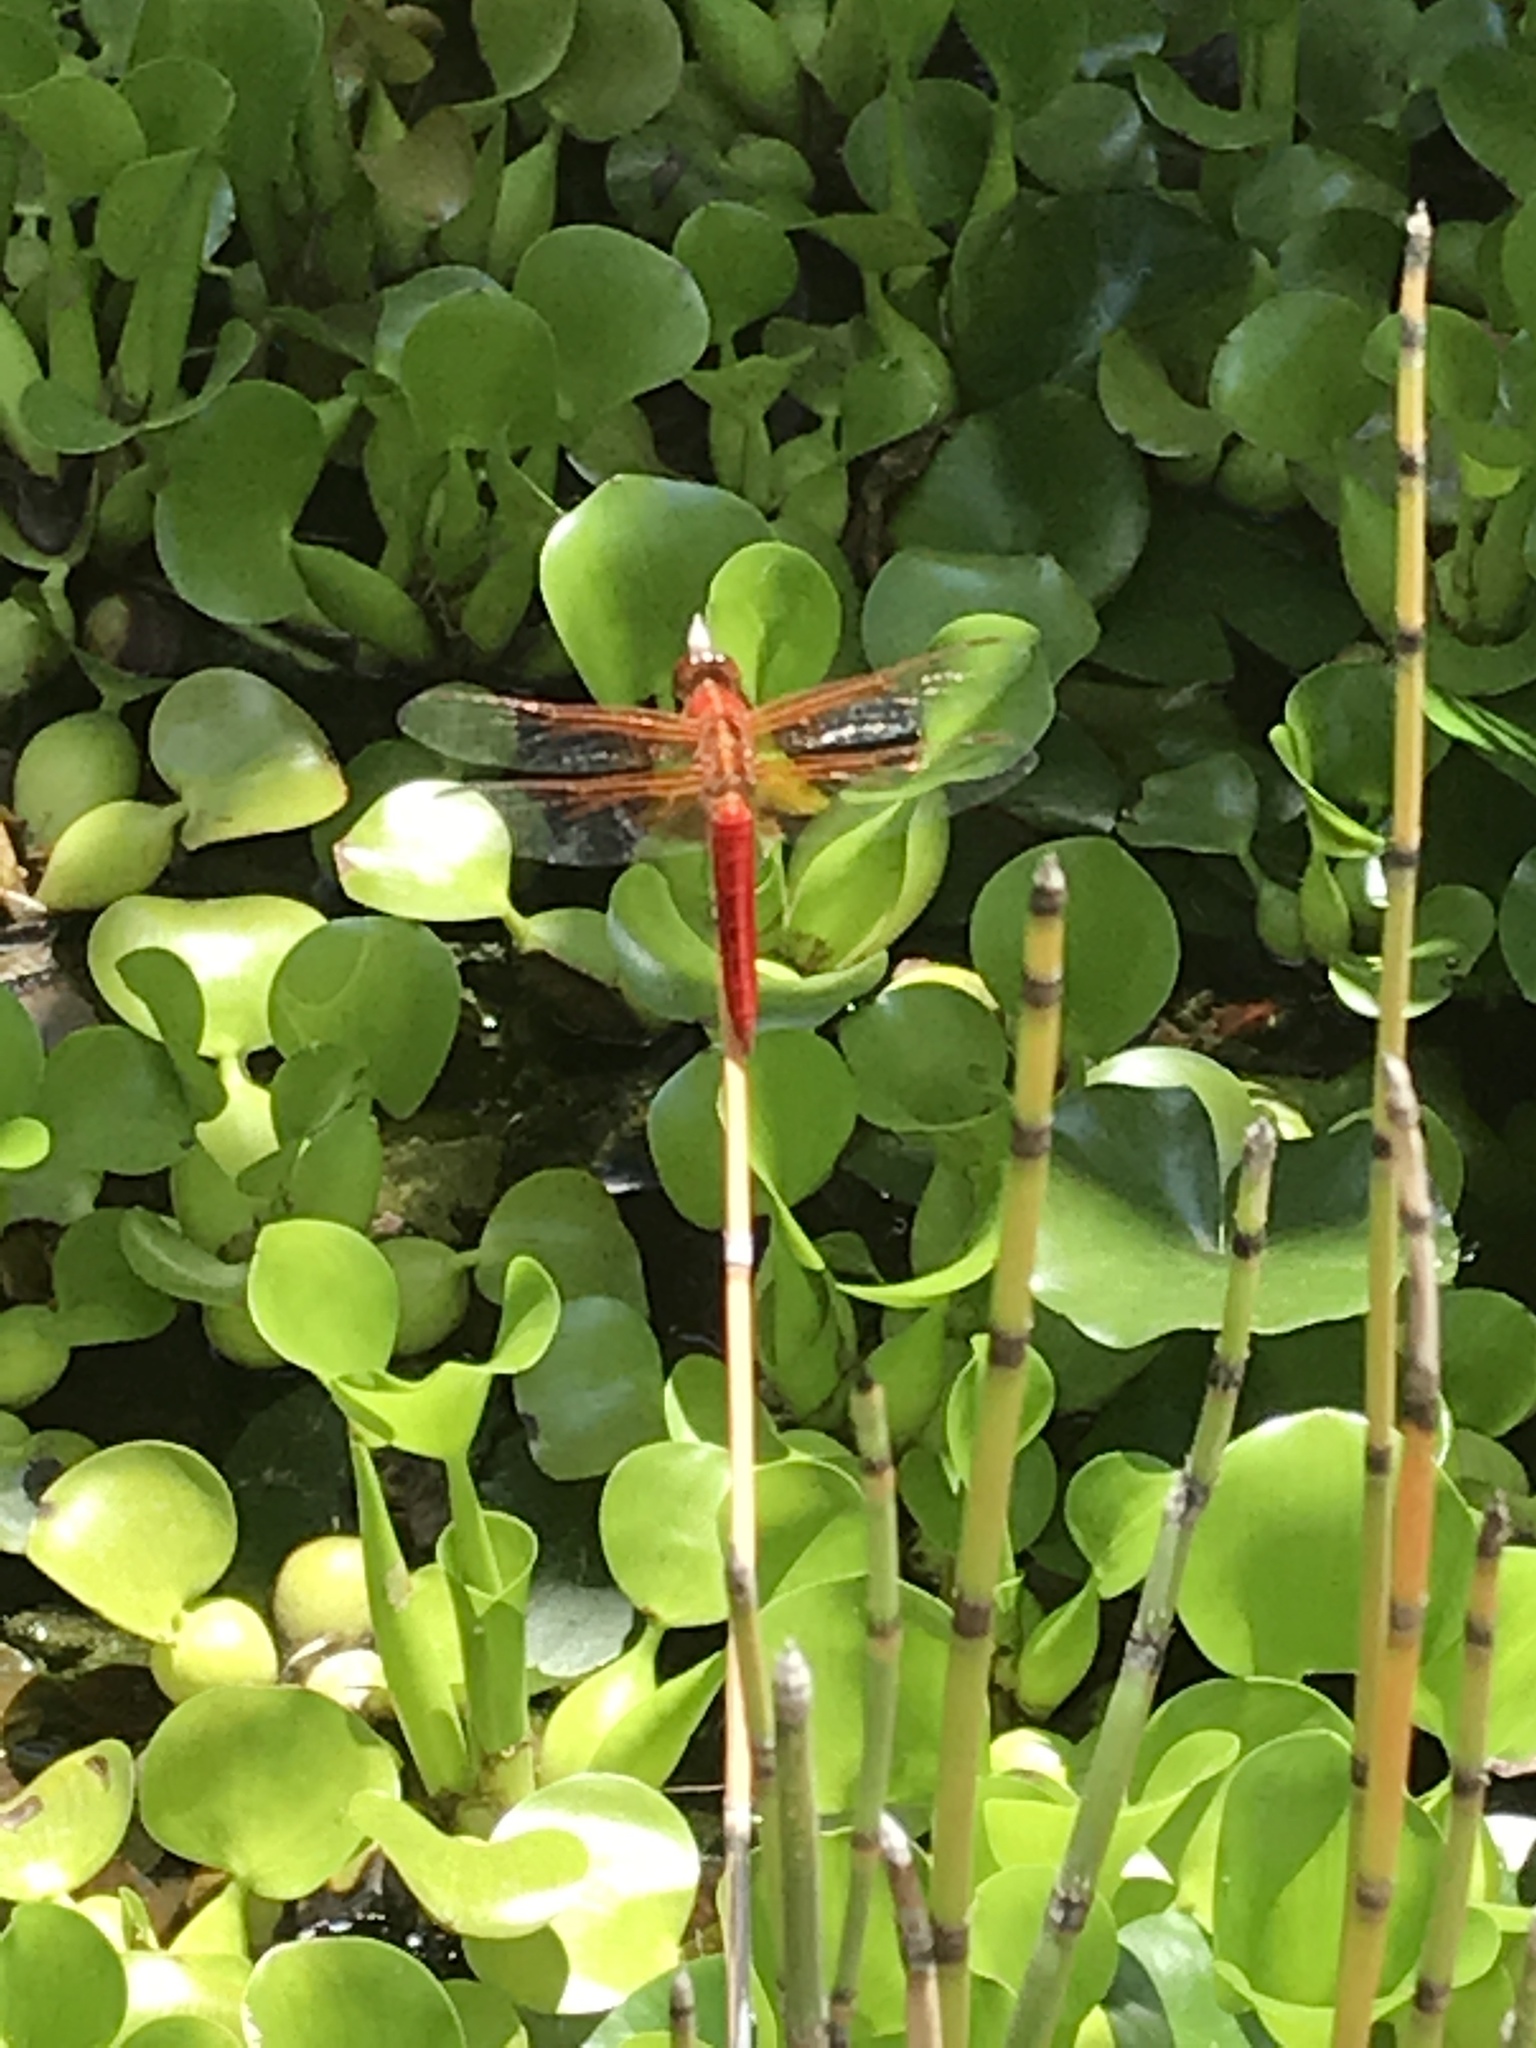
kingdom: Animalia
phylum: Arthropoda
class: Insecta
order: Odonata
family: Libellulidae
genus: Libellula
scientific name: Libellula croceipennis
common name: Neon skimmer
